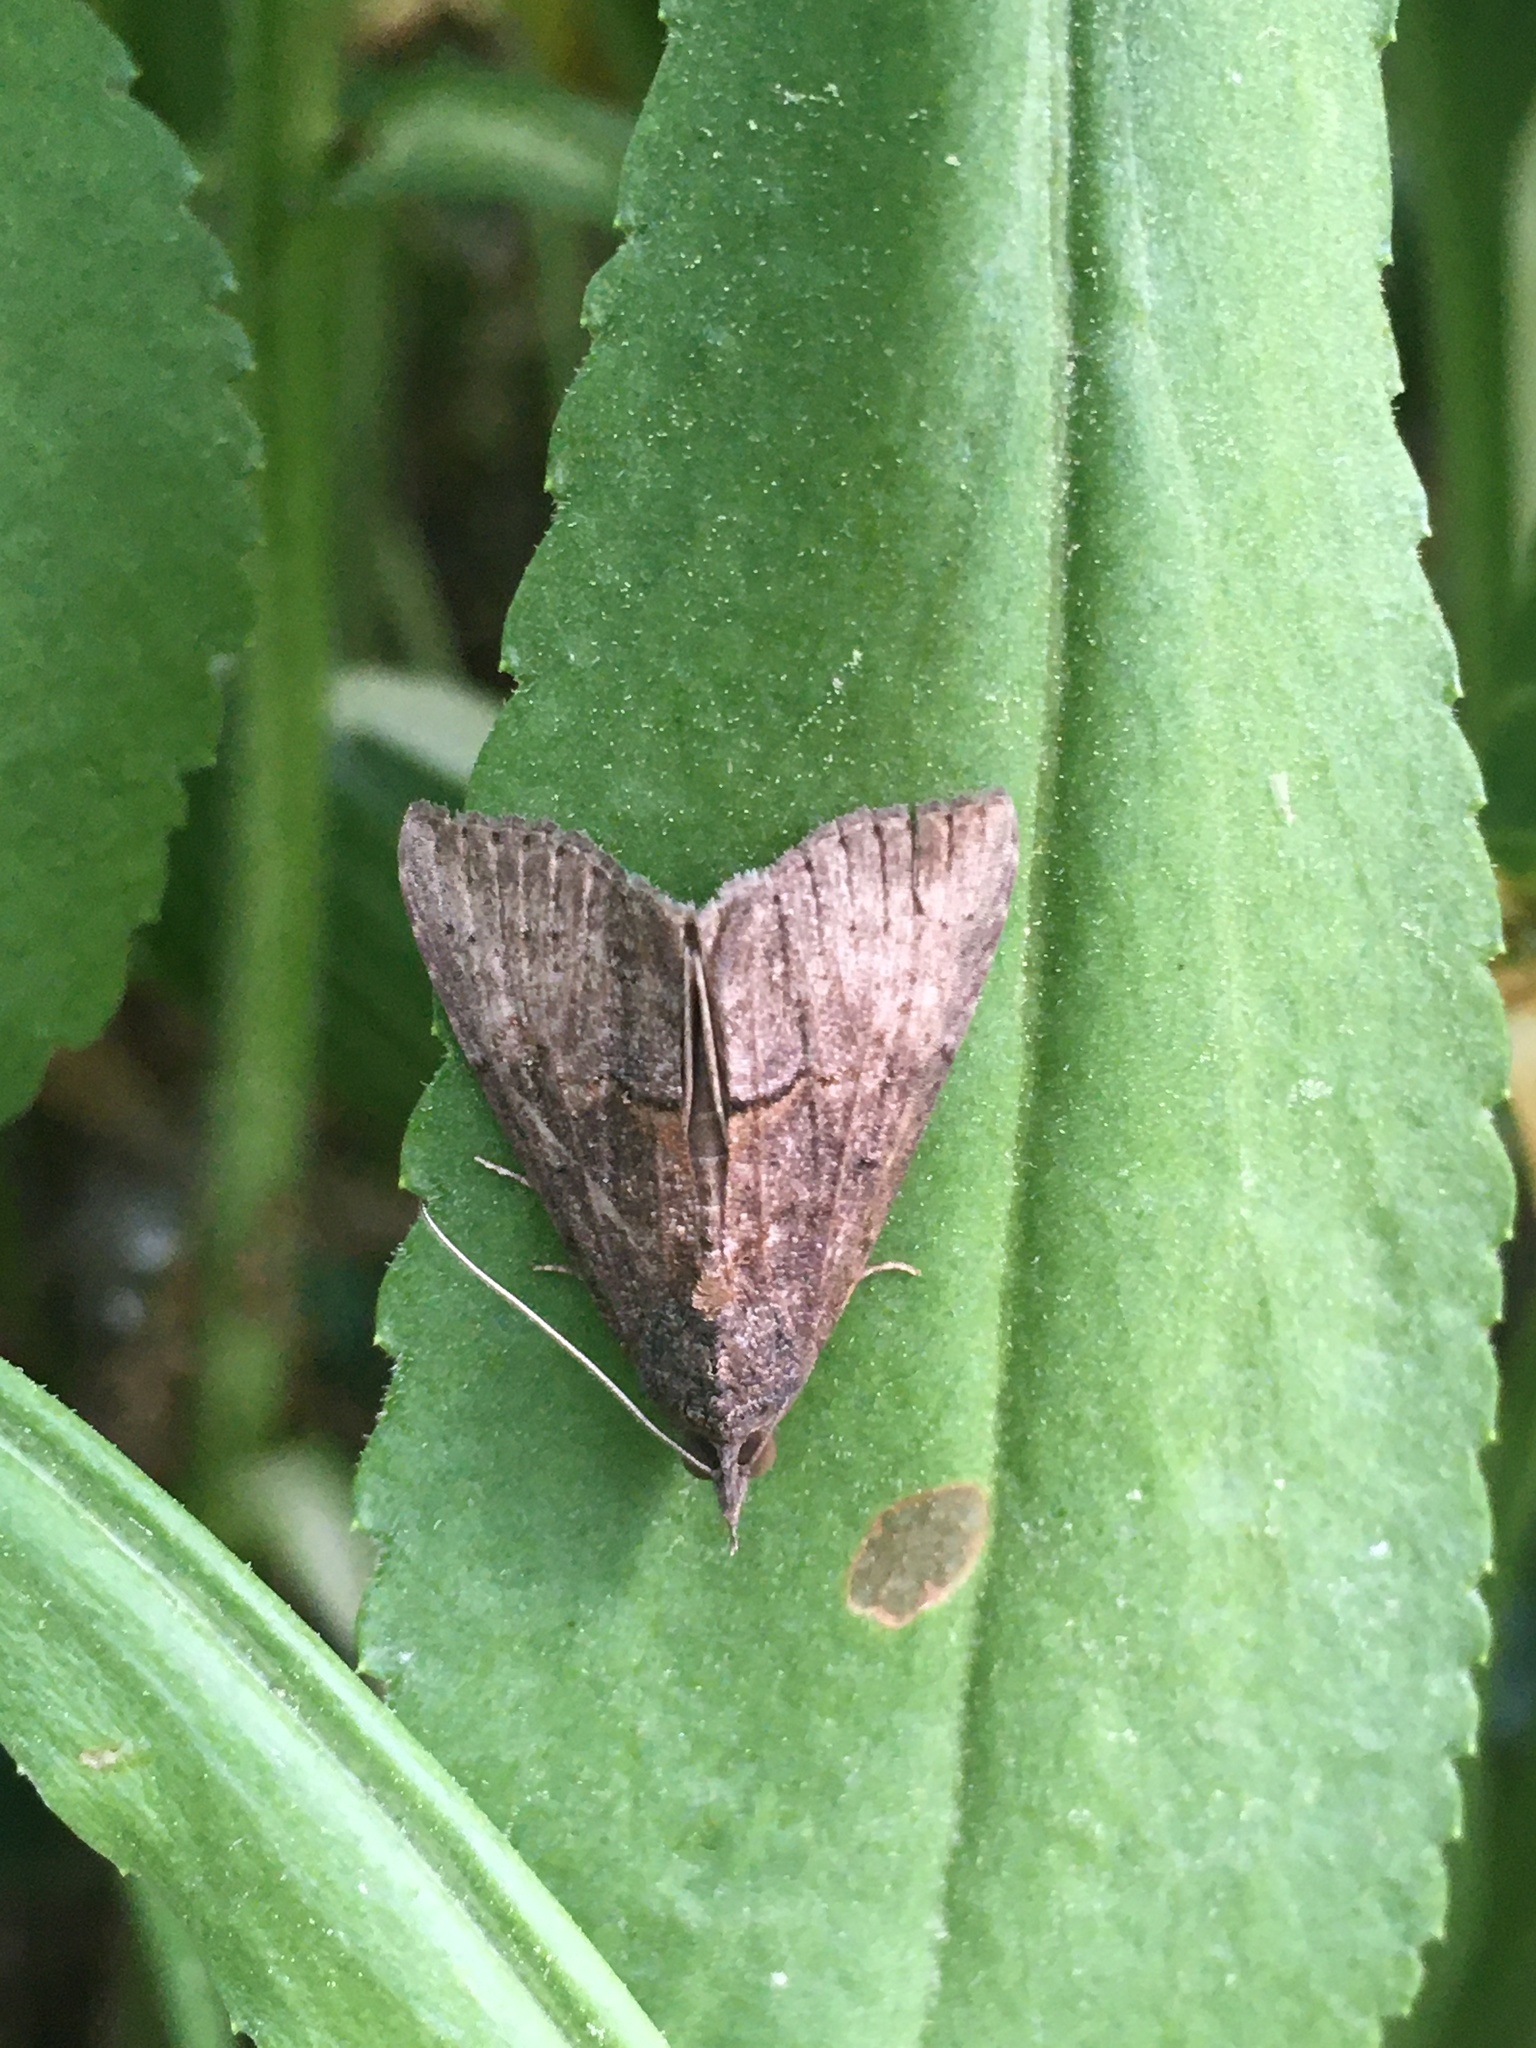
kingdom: Animalia
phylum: Arthropoda
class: Insecta
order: Lepidoptera
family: Erebidae
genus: Hypena
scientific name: Hypena scabra
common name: Green cloverworm
